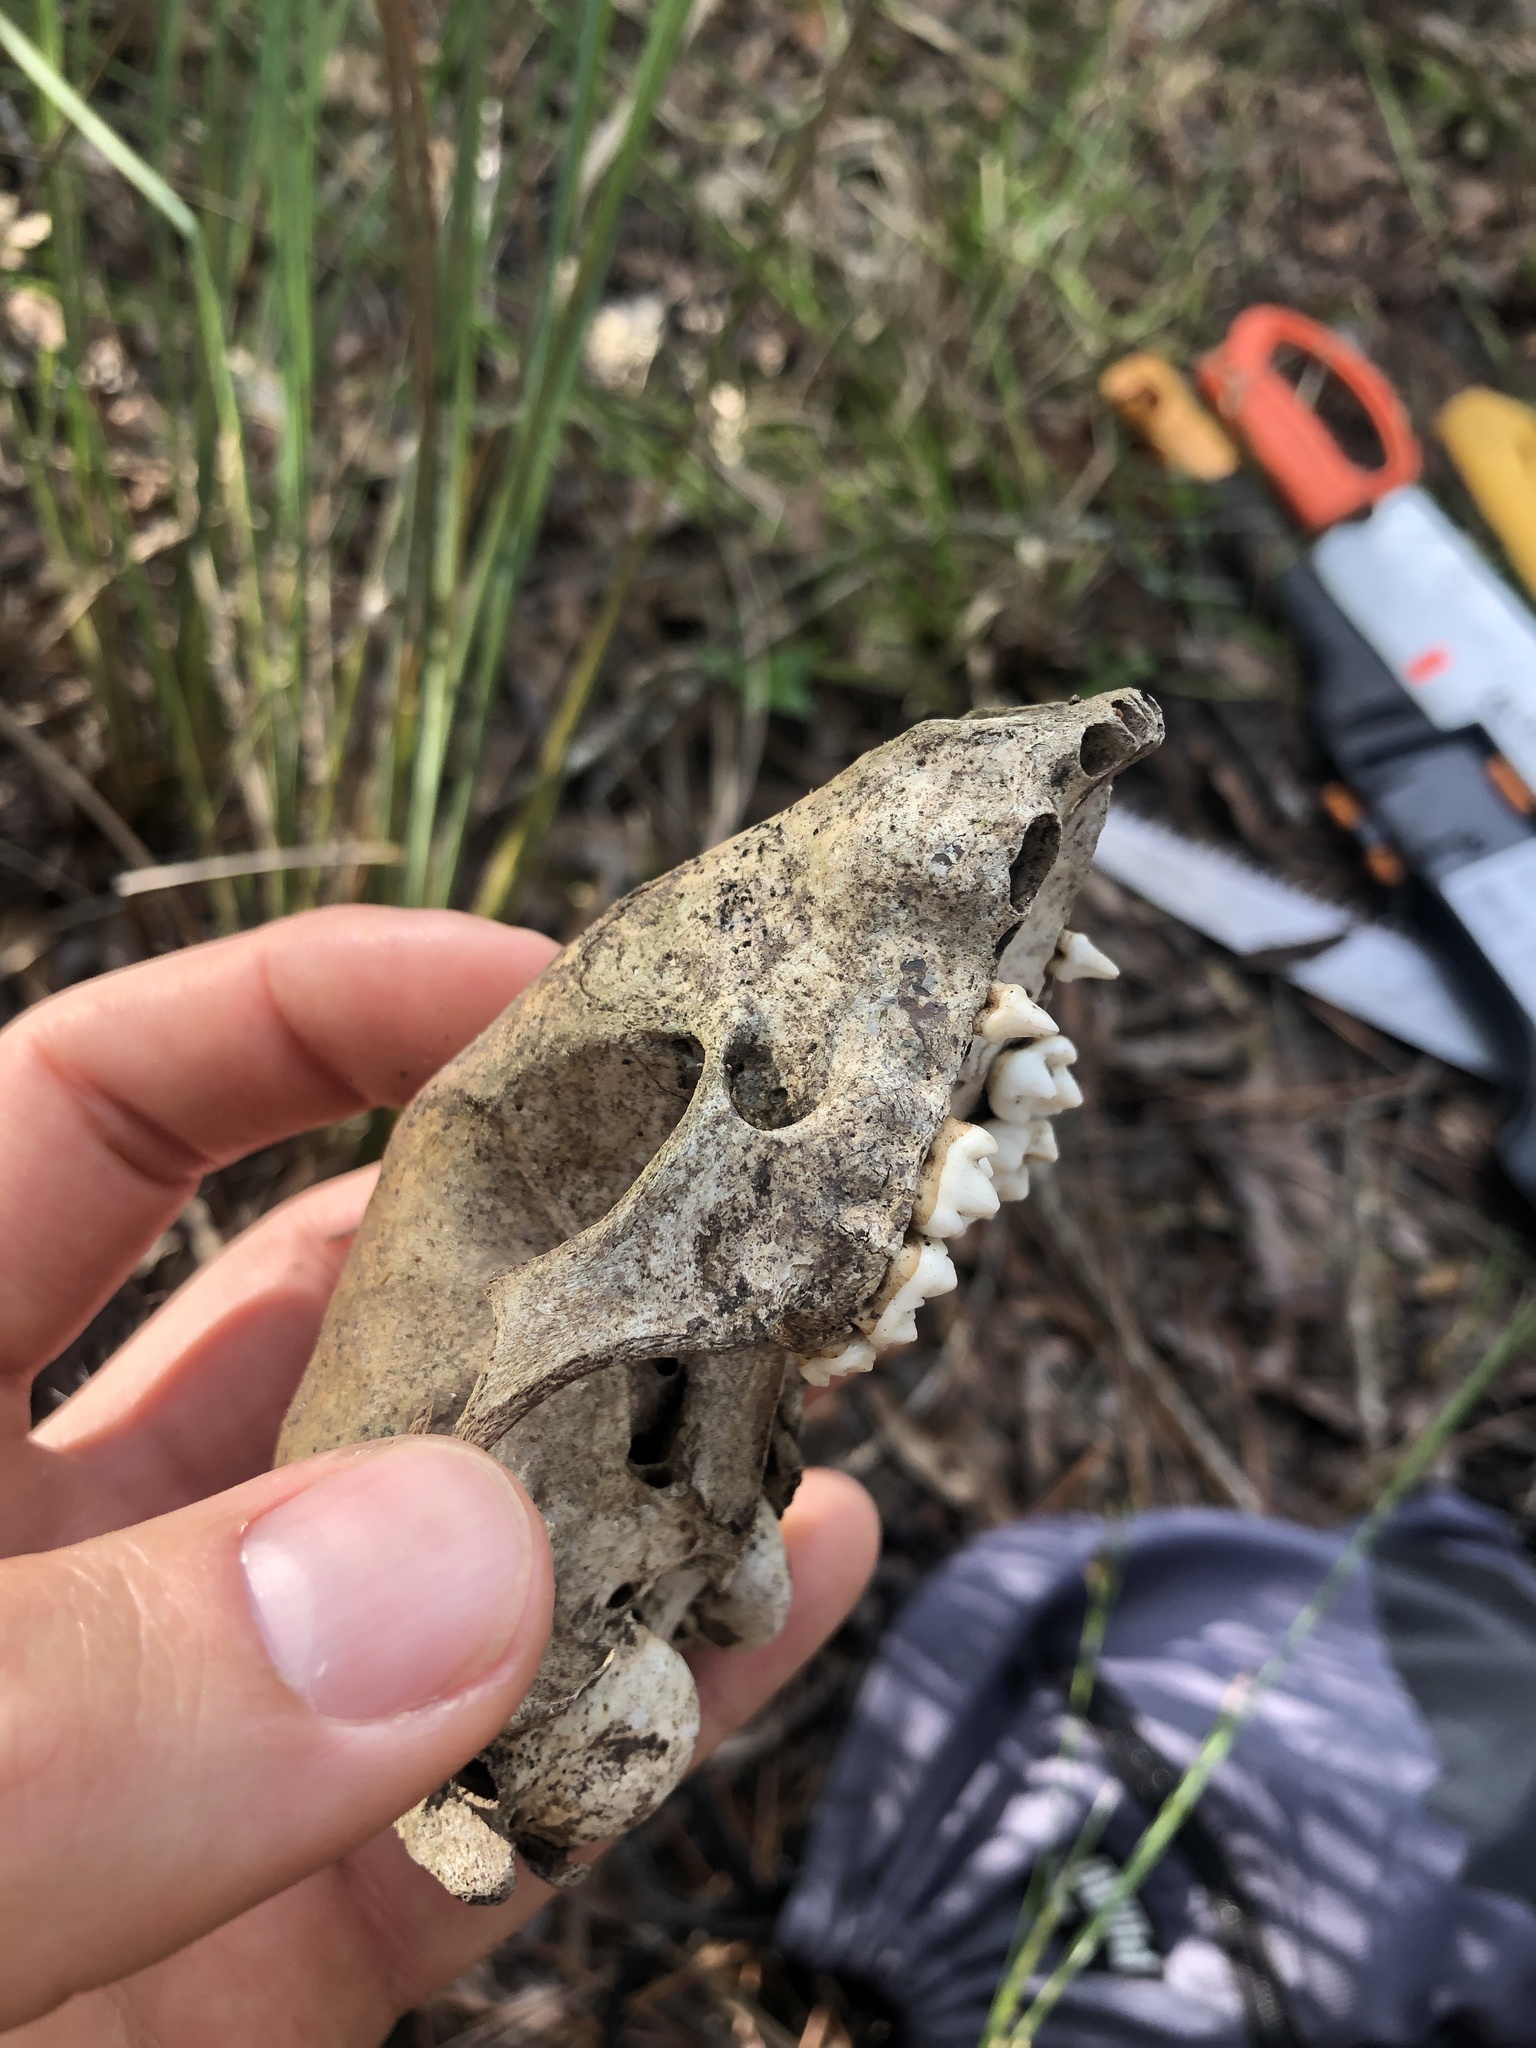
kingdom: Animalia
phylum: Chordata
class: Mammalia
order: Carnivora
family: Procyonidae
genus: Procyon
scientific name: Procyon lotor
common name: Raccoon
